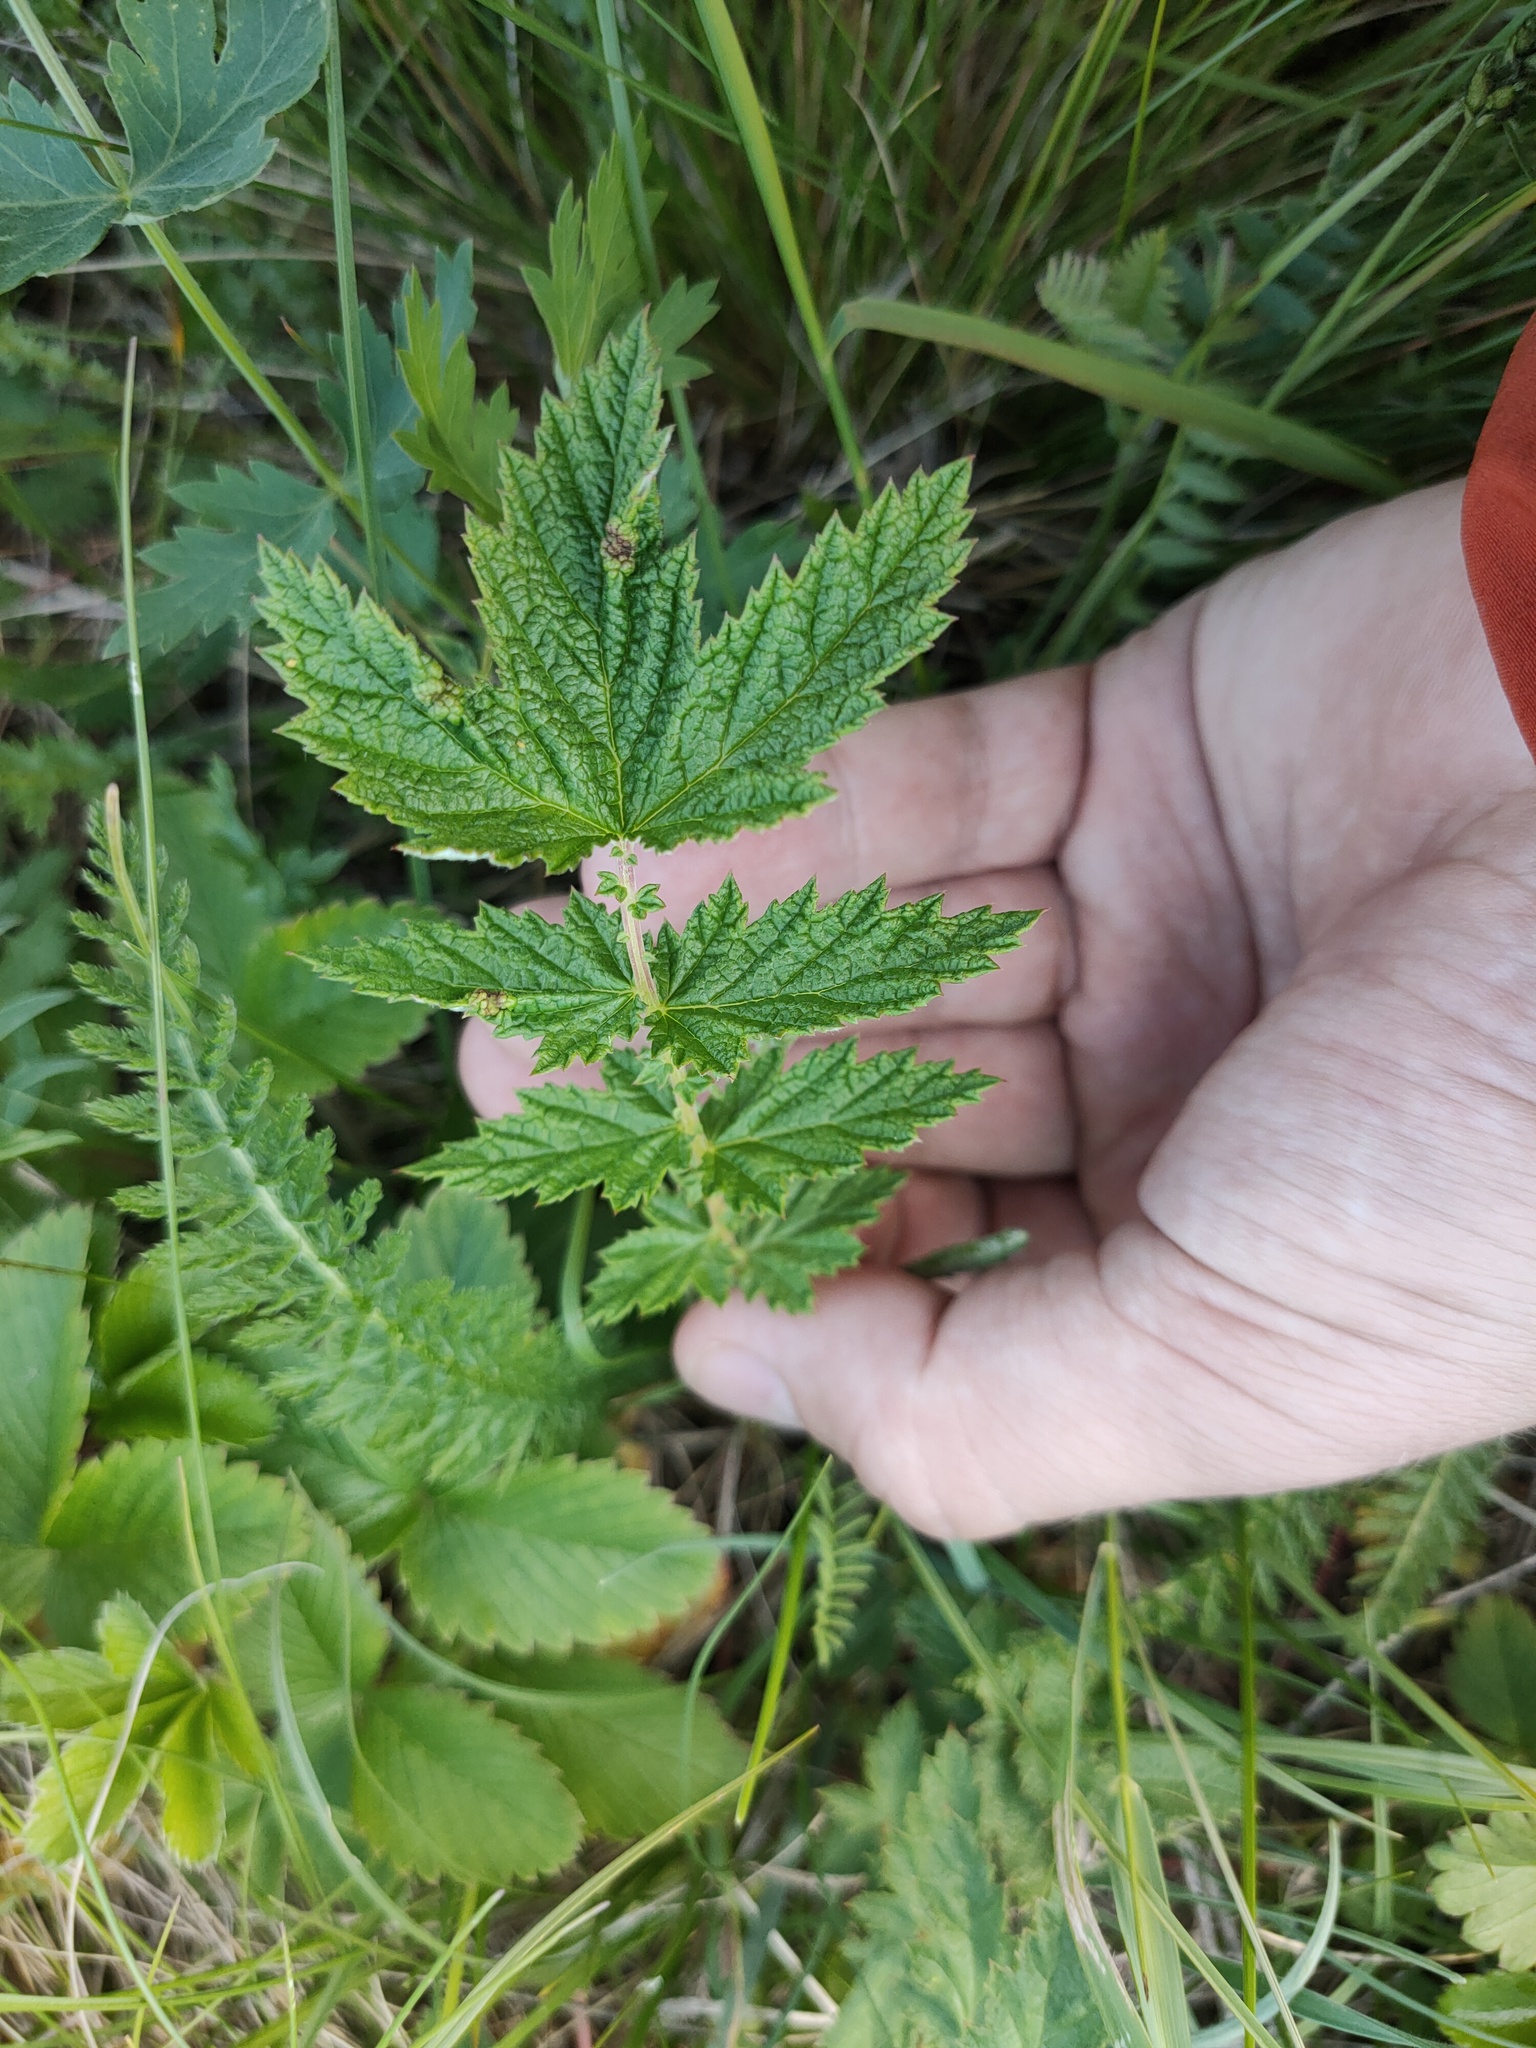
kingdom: Plantae
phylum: Tracheophyta
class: Magnoliopsida
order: Rosales
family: Rosaceae
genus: Filipendula
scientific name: Filipendula ulmaria
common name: Meadowsweet
